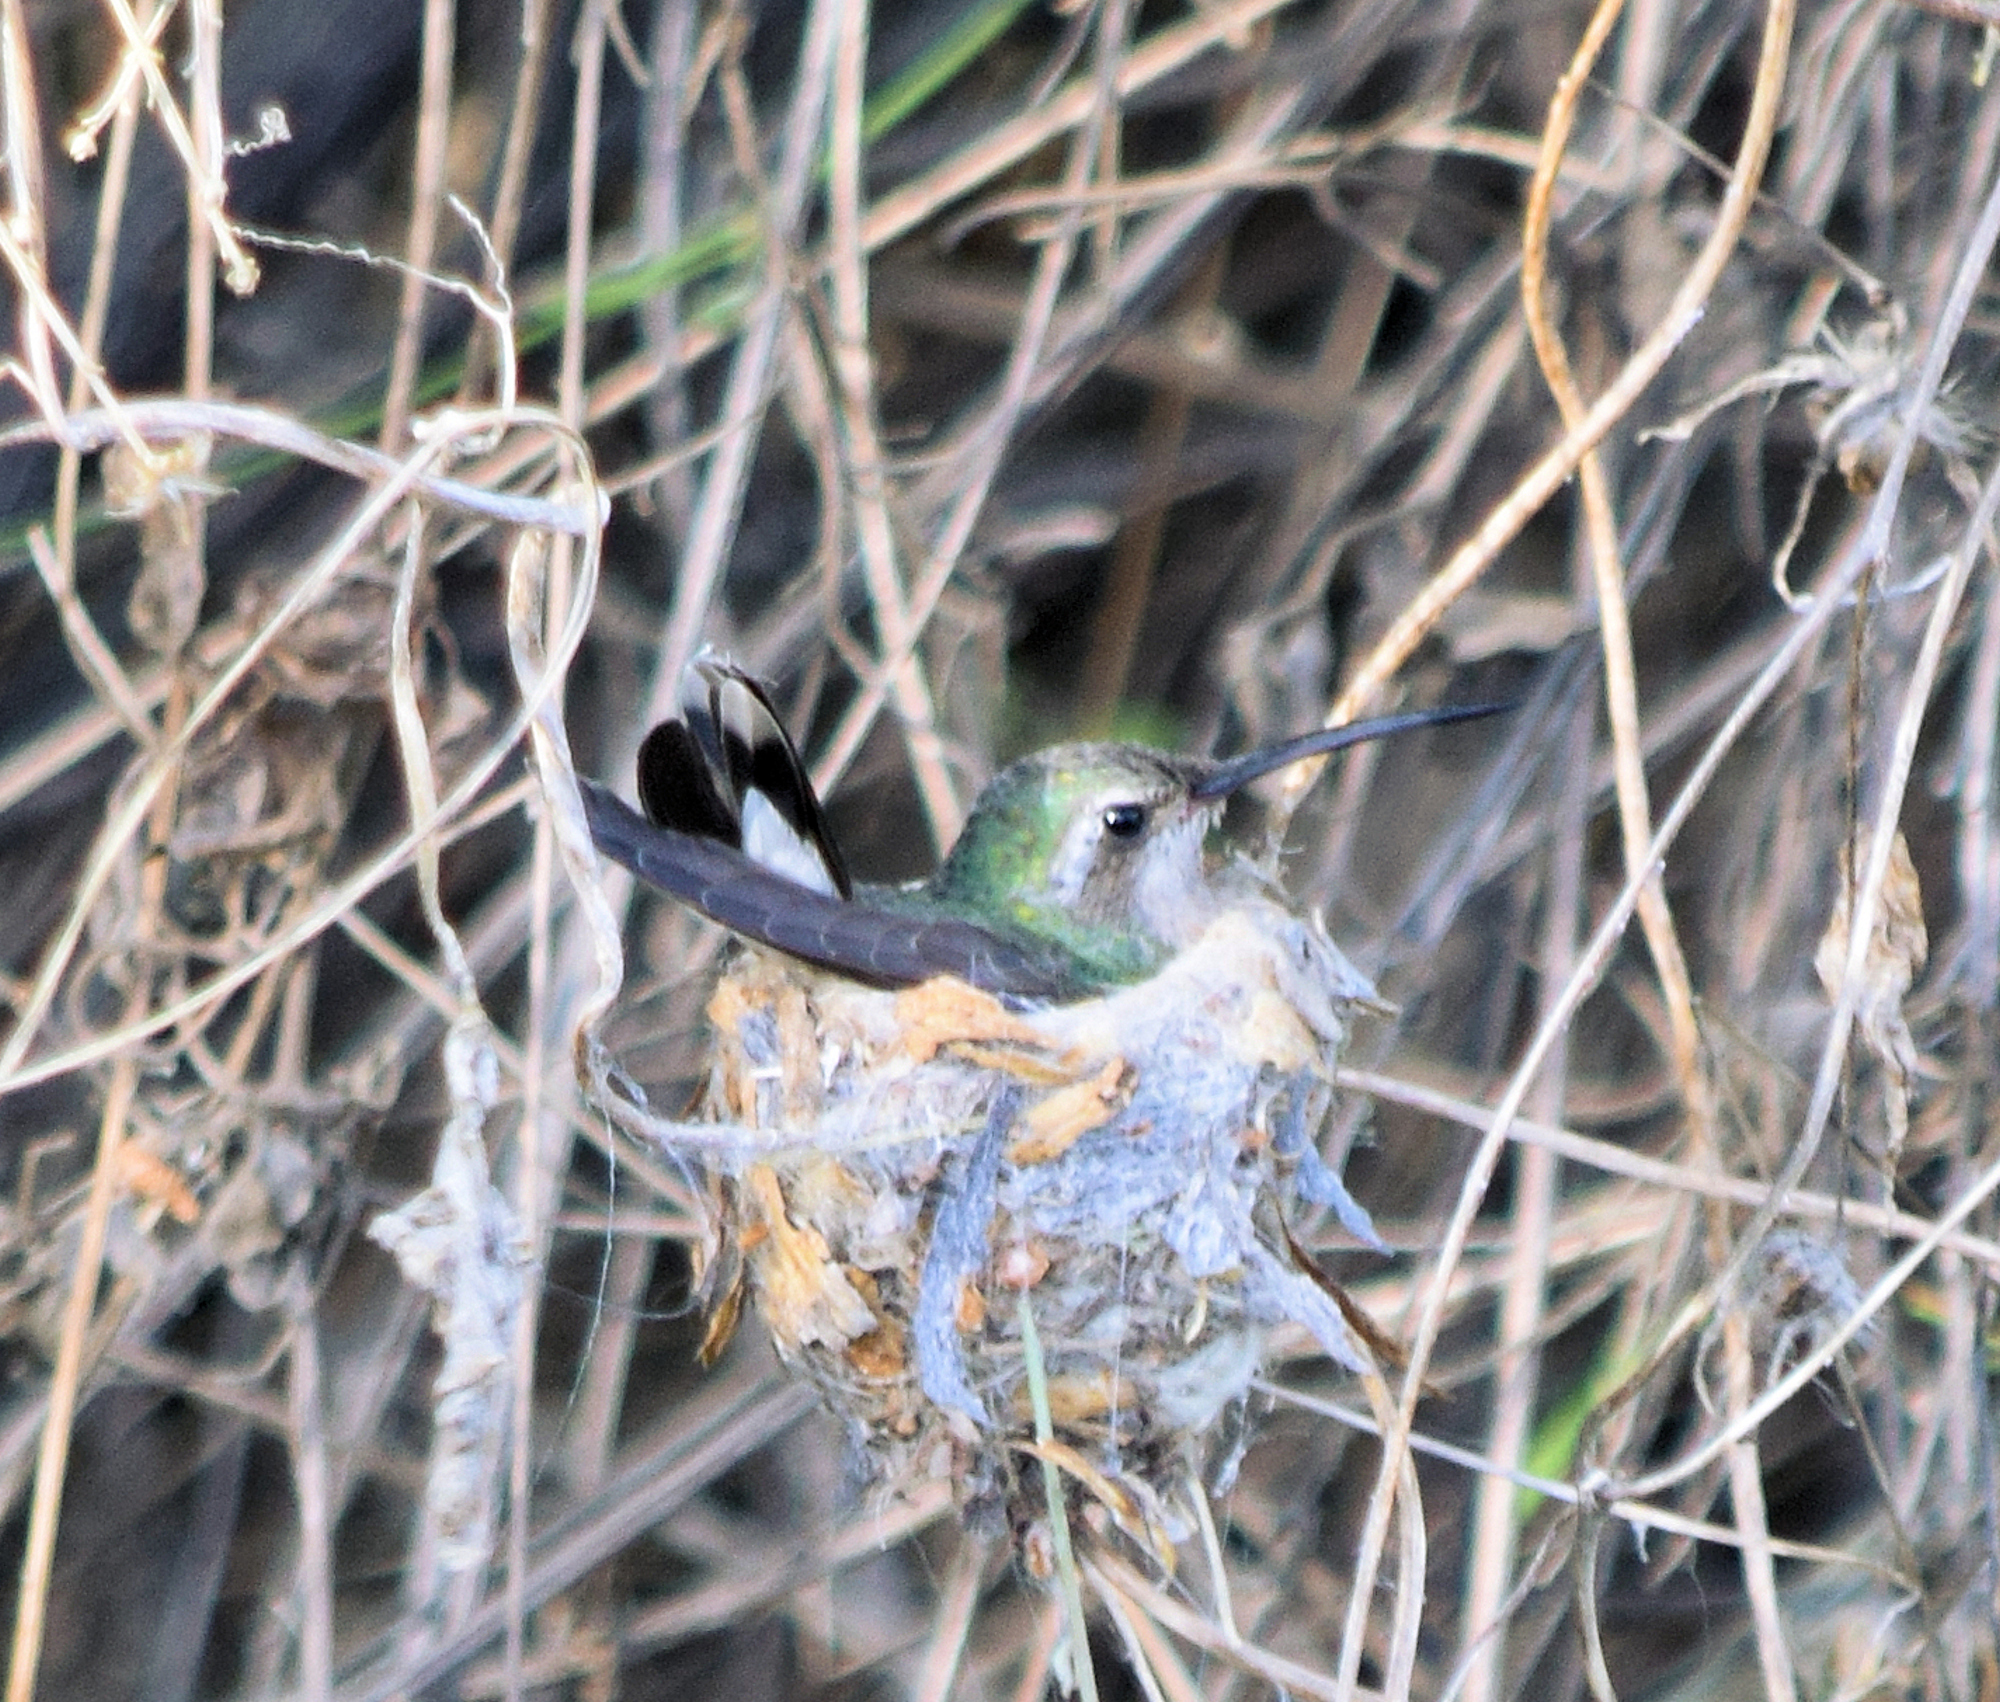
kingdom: Animalia
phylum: Chordata
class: Aves
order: Apodiformes
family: Trochilidae
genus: Cynanthus
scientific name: Cynanthus latirostris
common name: Broad-billed hummingbird
